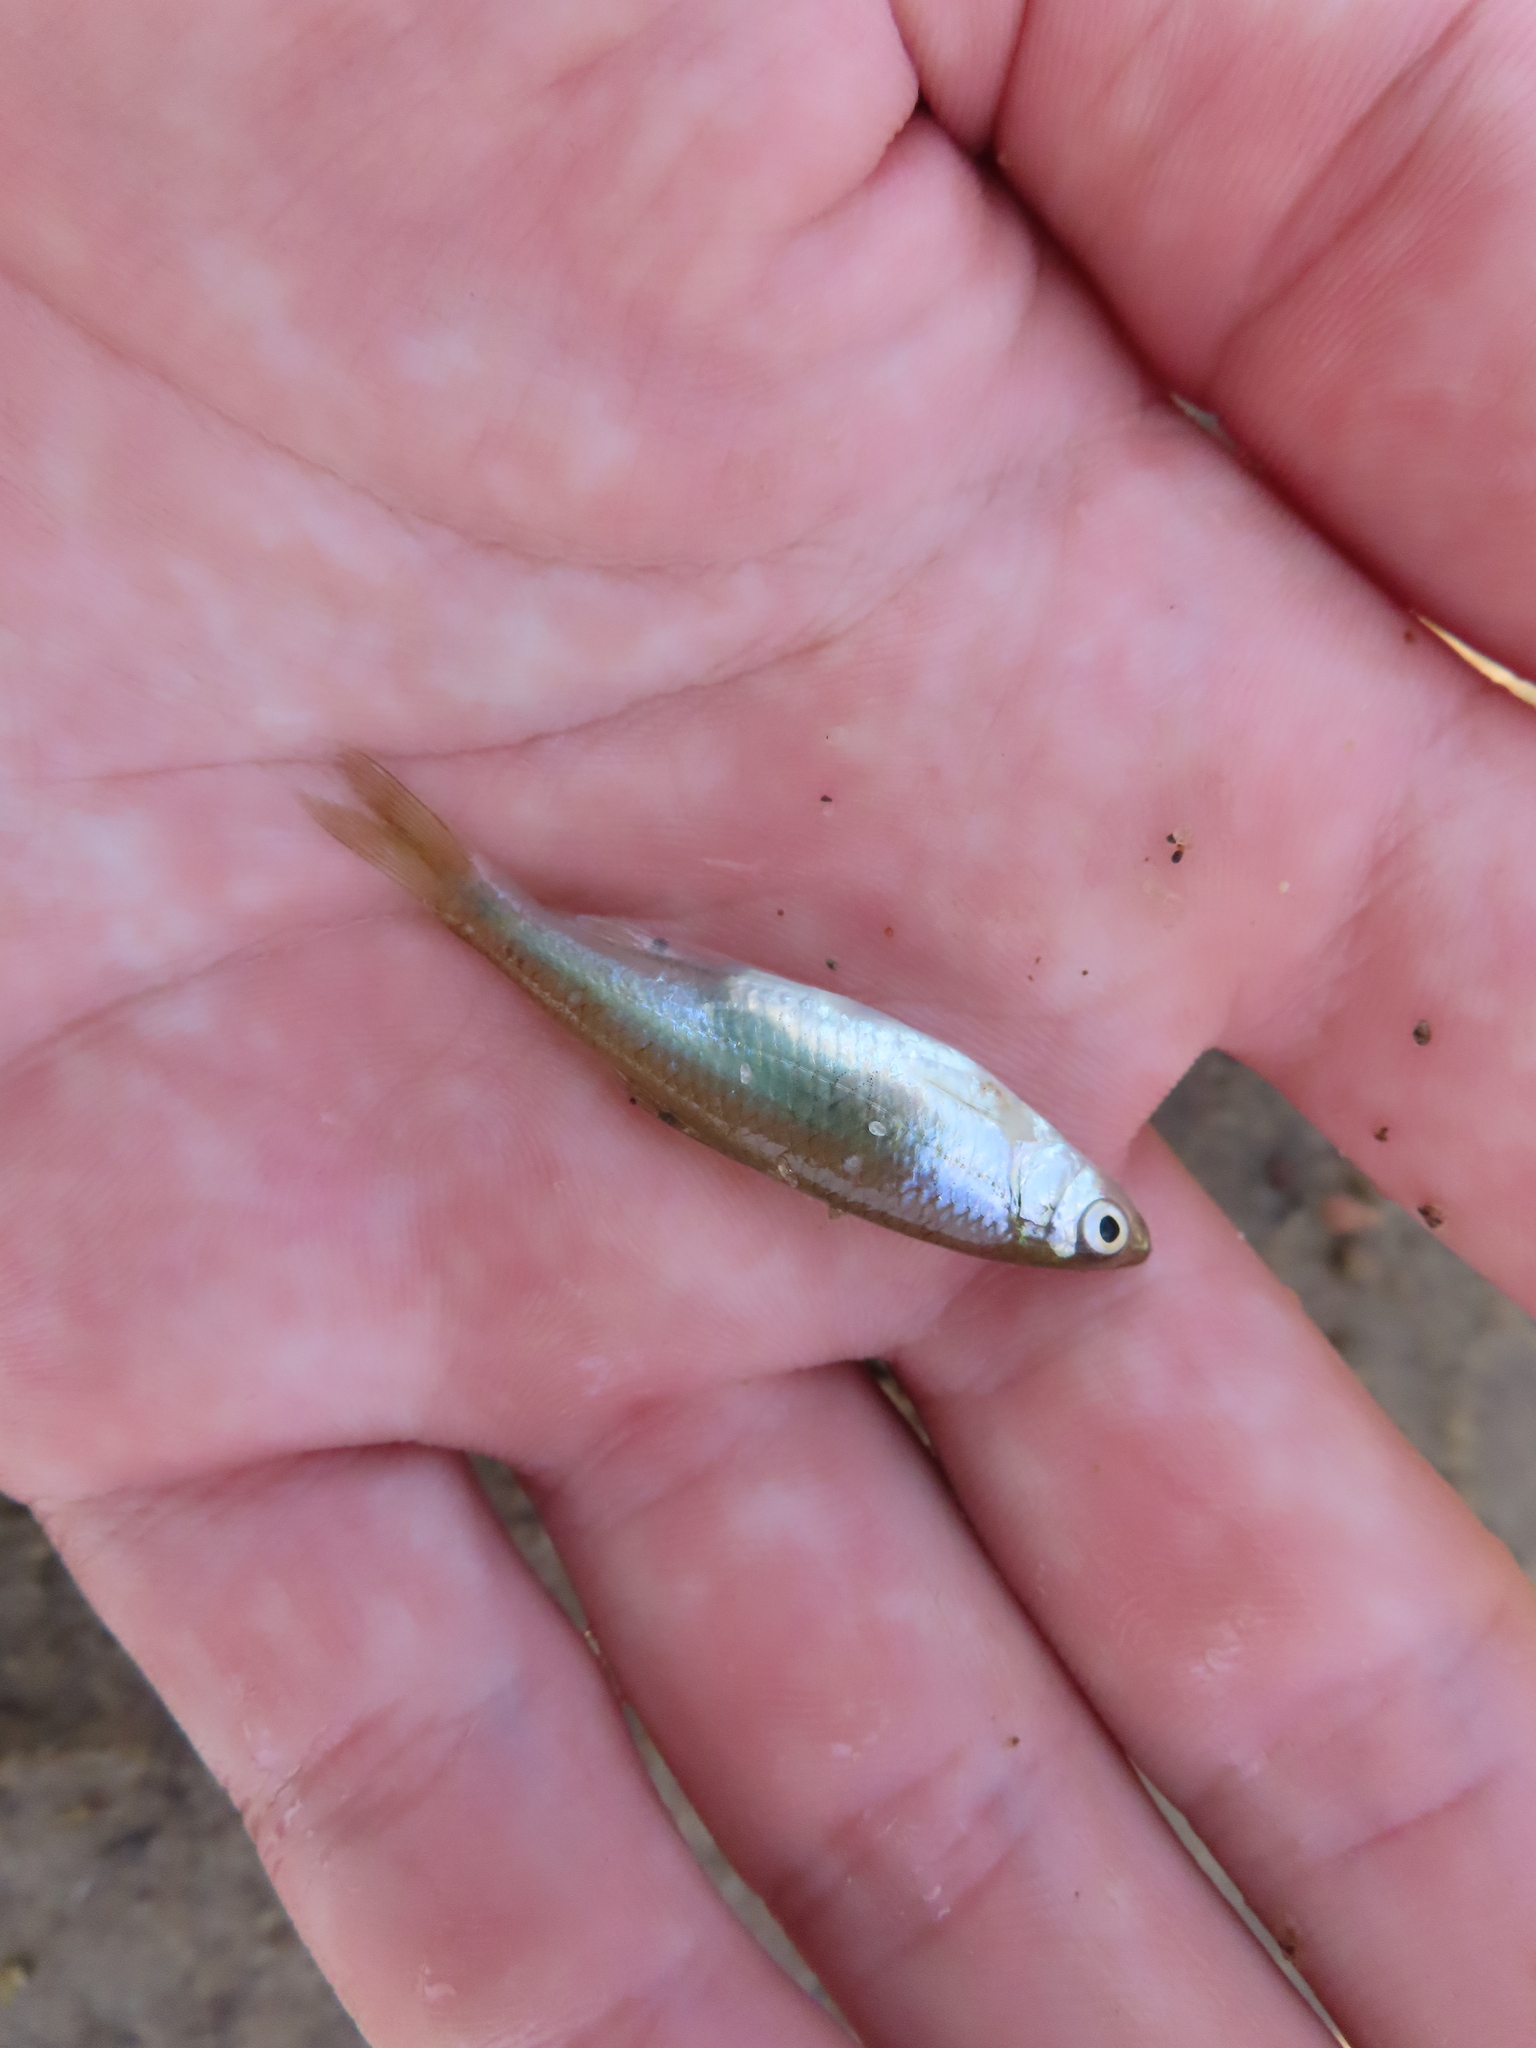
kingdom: Animalia
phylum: Chordata
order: Cypriniformes
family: Cyprinidae
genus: Cyprinella
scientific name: Cyprinella spiloptera
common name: Spotfin shiner
